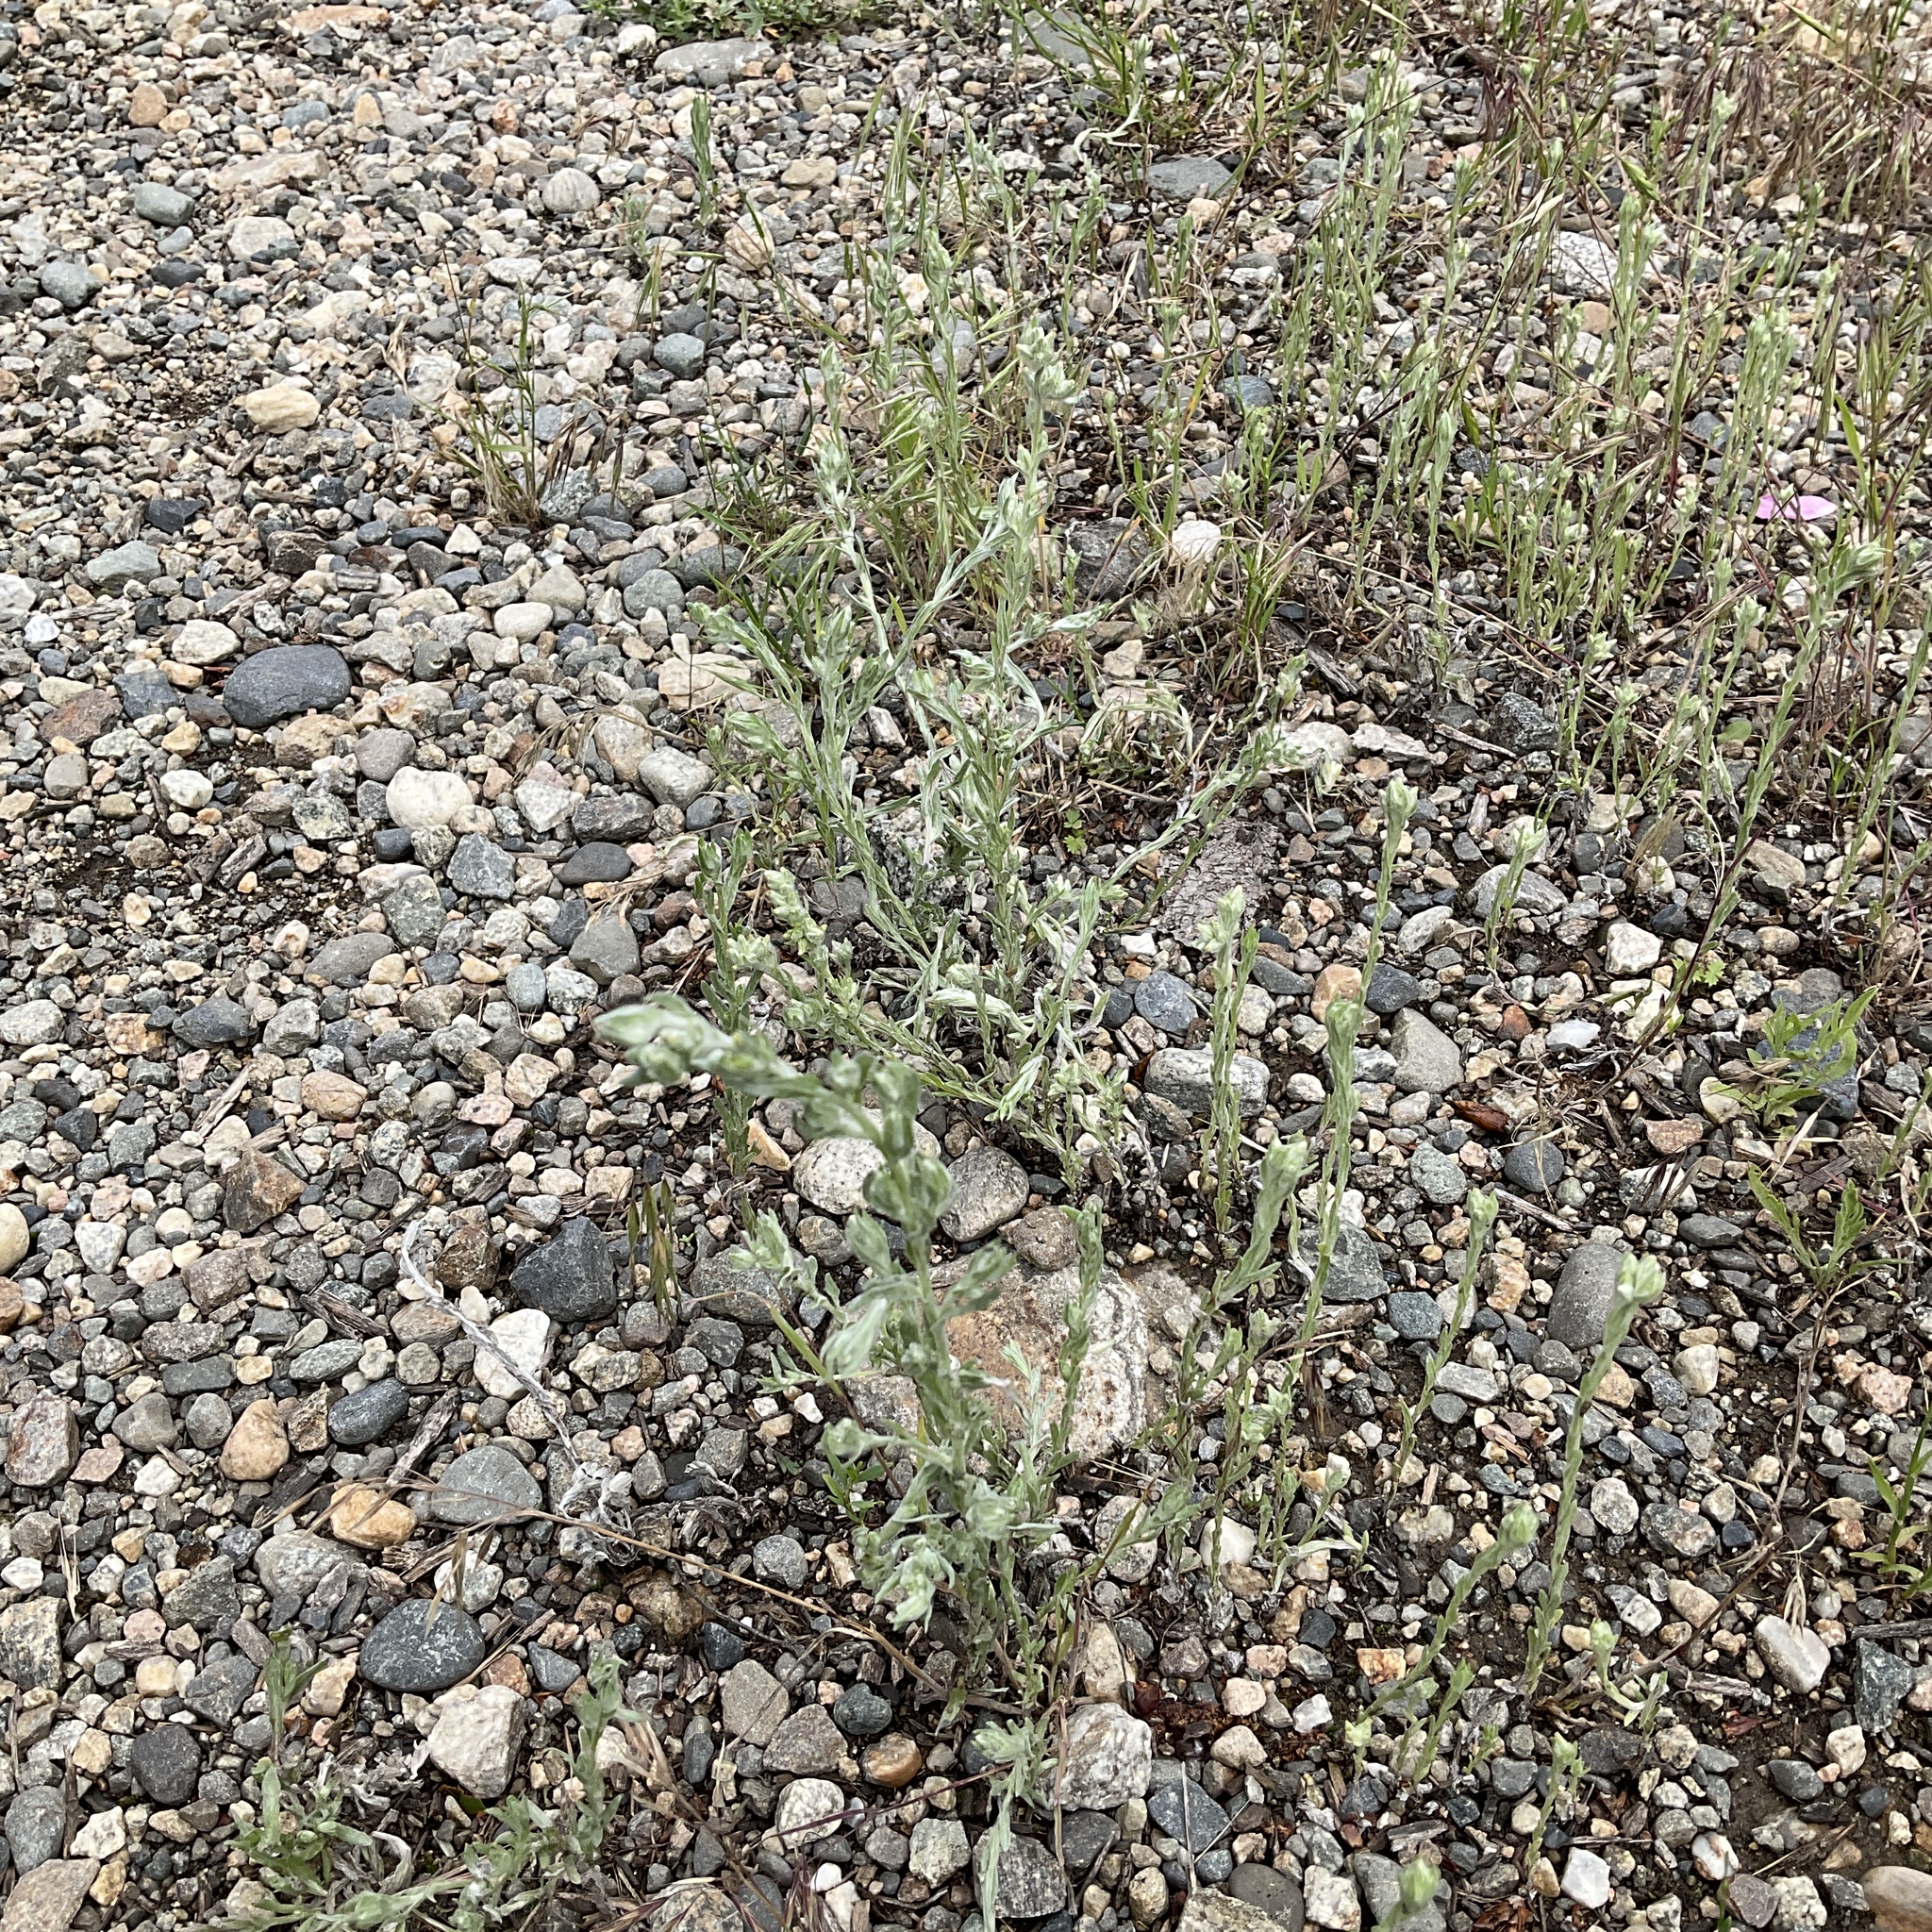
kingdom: Plantae
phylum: Tracheophyta
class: Magnoliopsida
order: Asterales
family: Asteraceae
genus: Filago
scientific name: Filago arvensis
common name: Field cudweed
